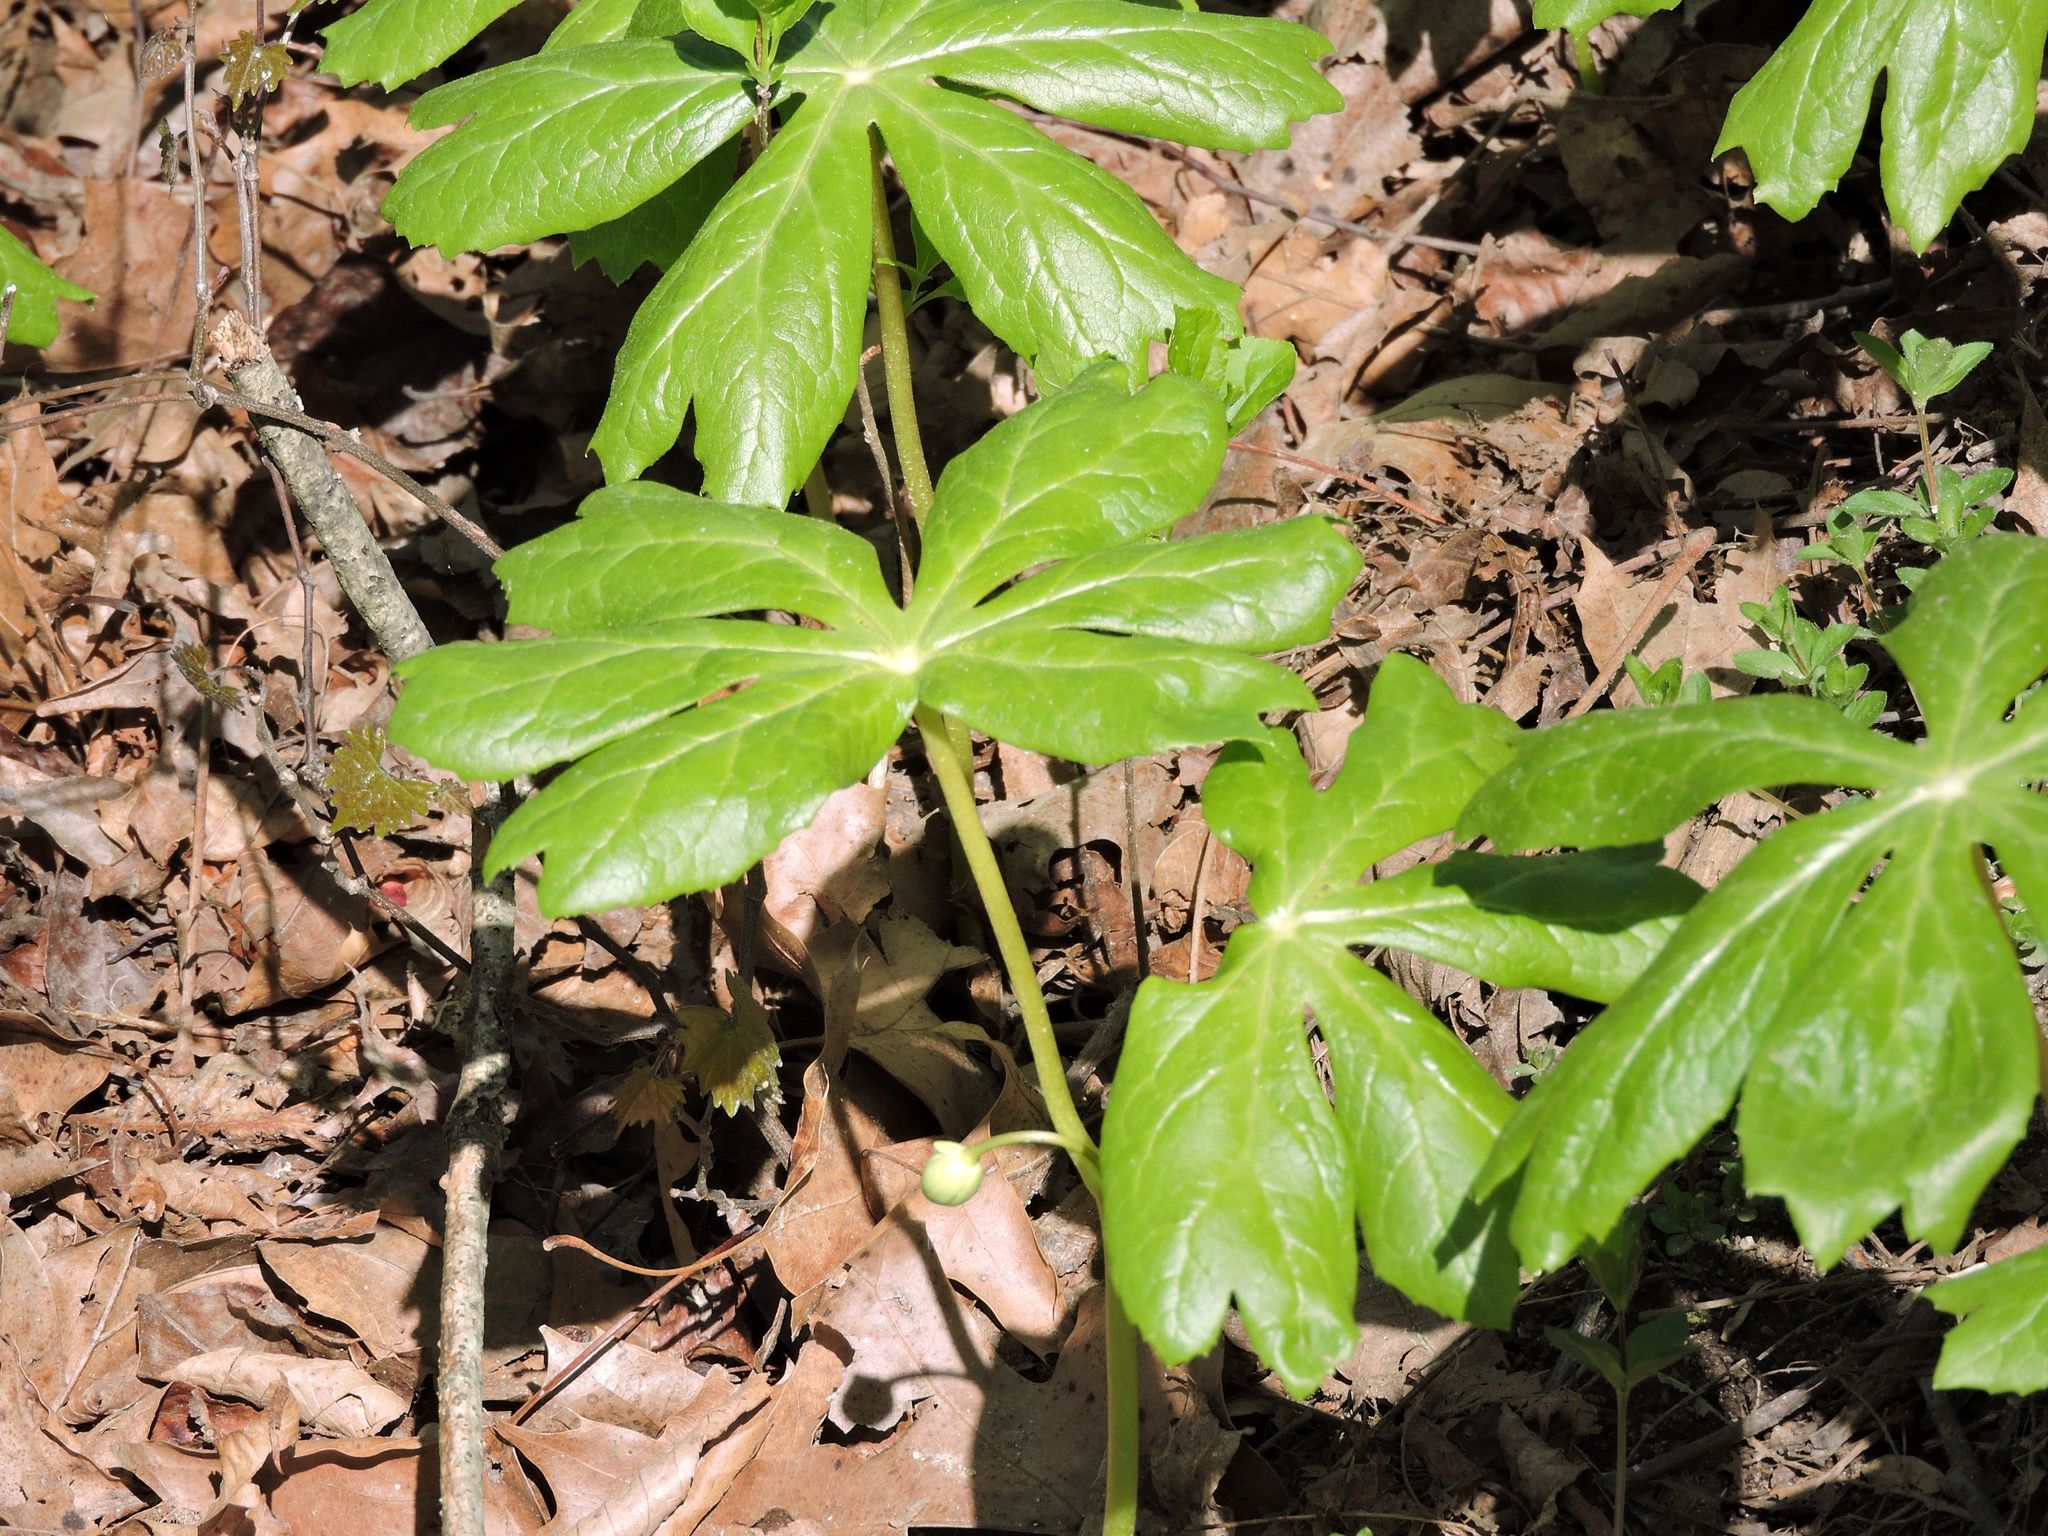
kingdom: Plantae
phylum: Tracheophyta
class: Magnoliopsida
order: Ranunculales
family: Berberidaceae
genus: Podophyllum
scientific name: Podophyllum peltatum
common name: Wild mandrake
